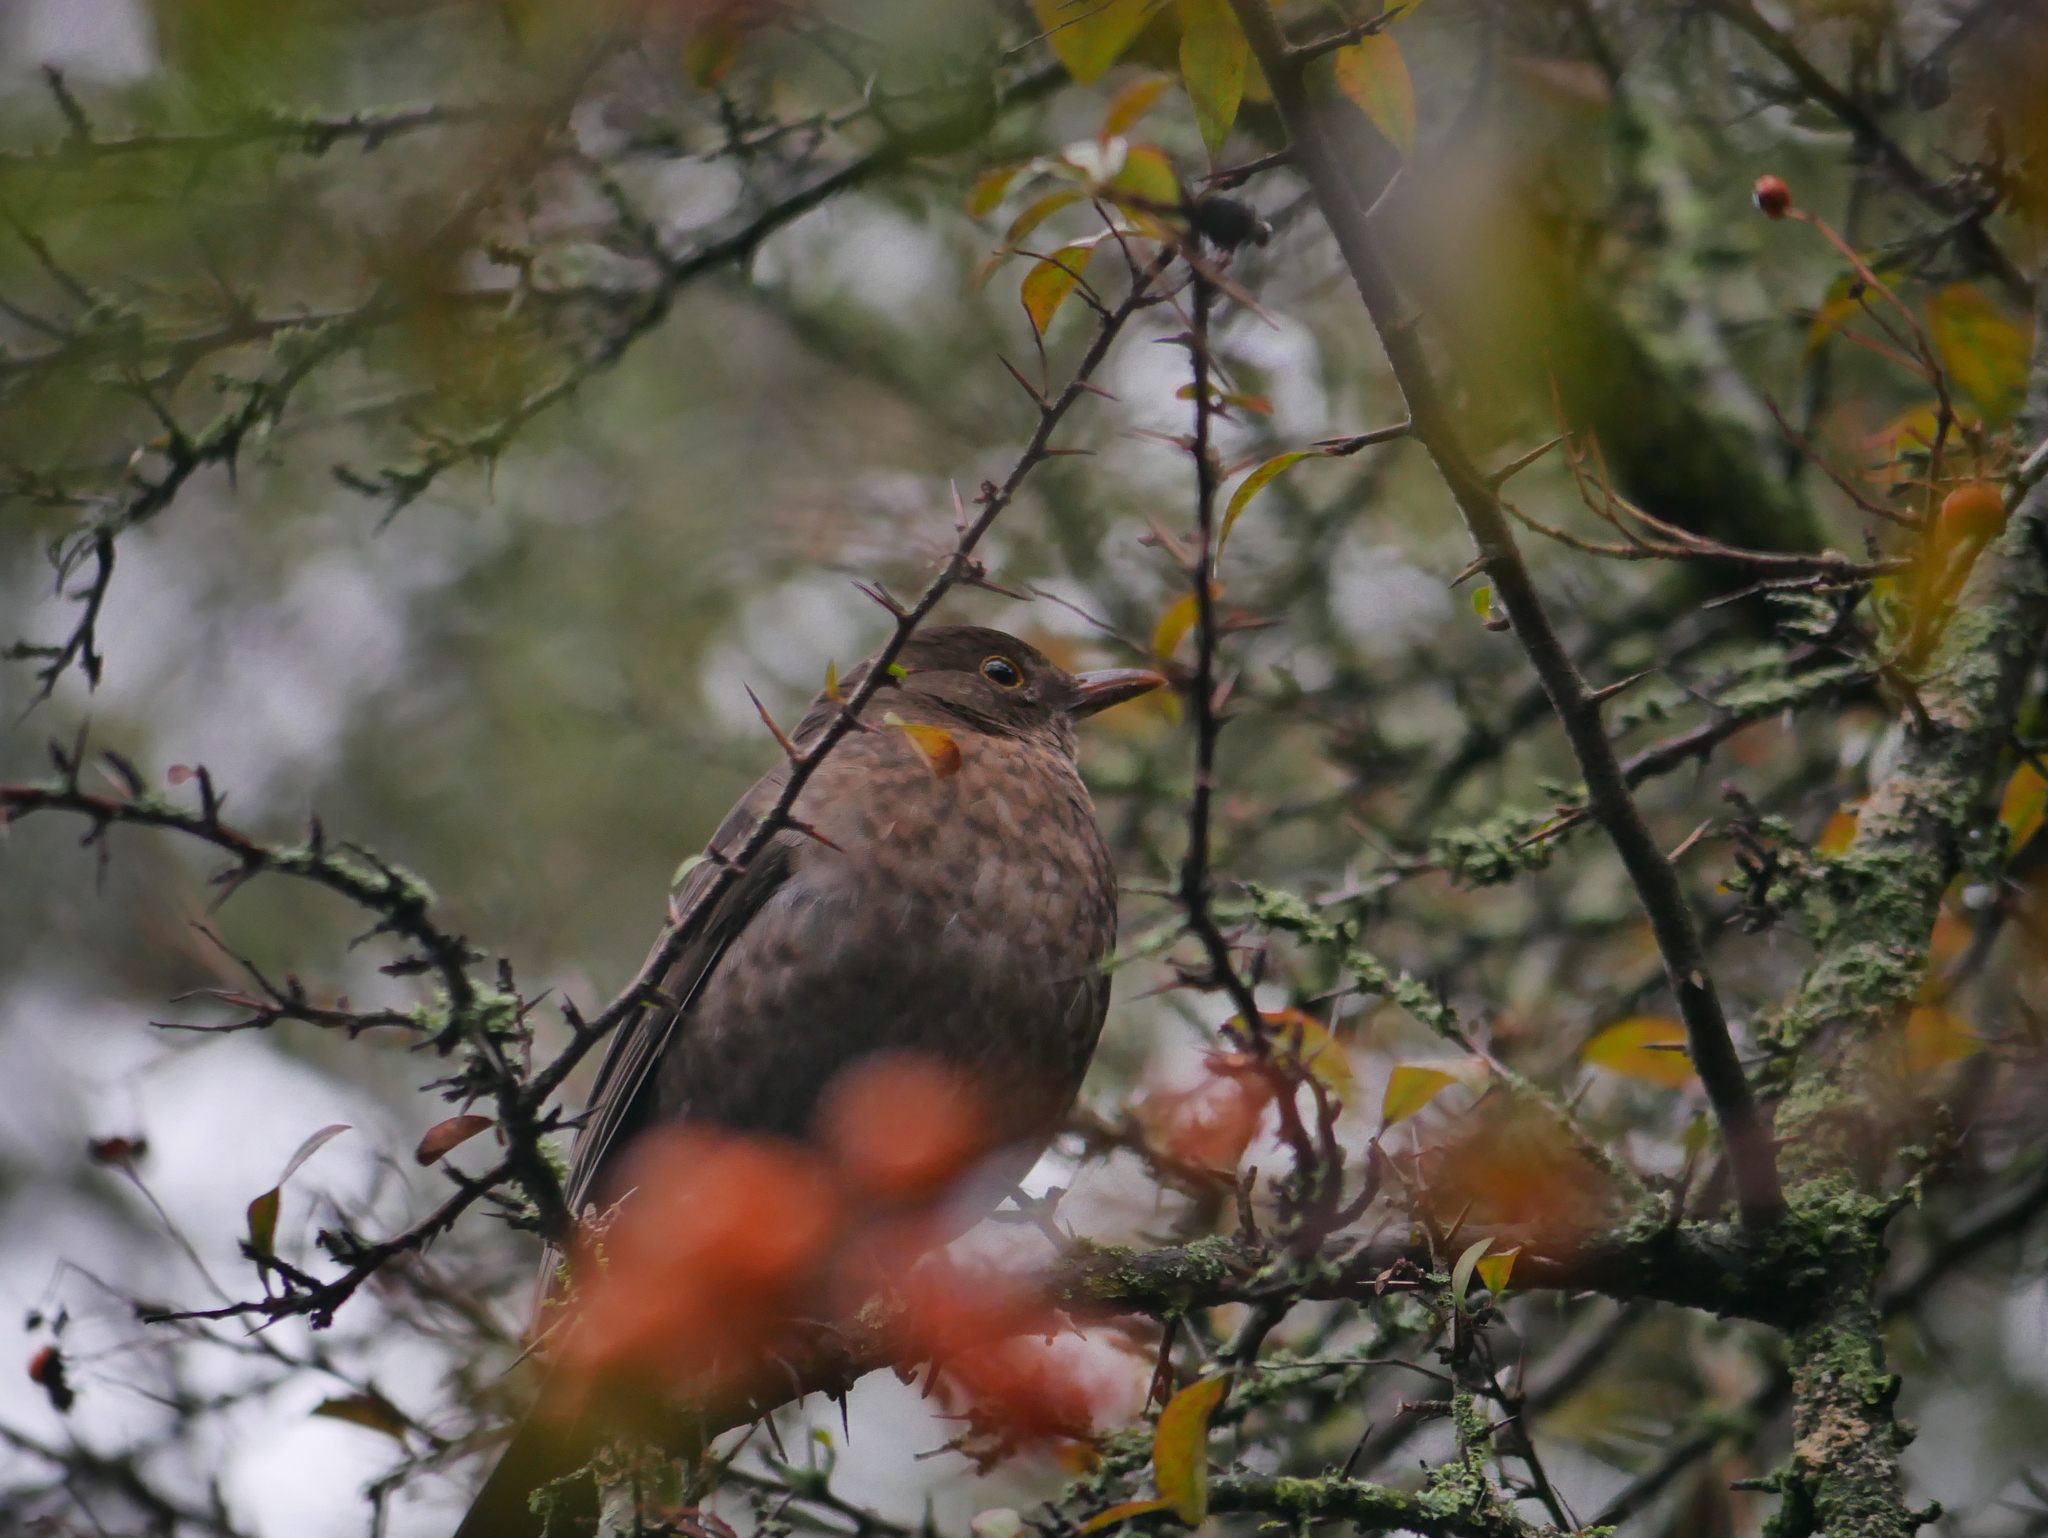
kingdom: Animalia
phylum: Chordata
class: Aves
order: Passeriformes
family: Turdidae
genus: Turdus
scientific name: Turdus merula
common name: Common blackbird
